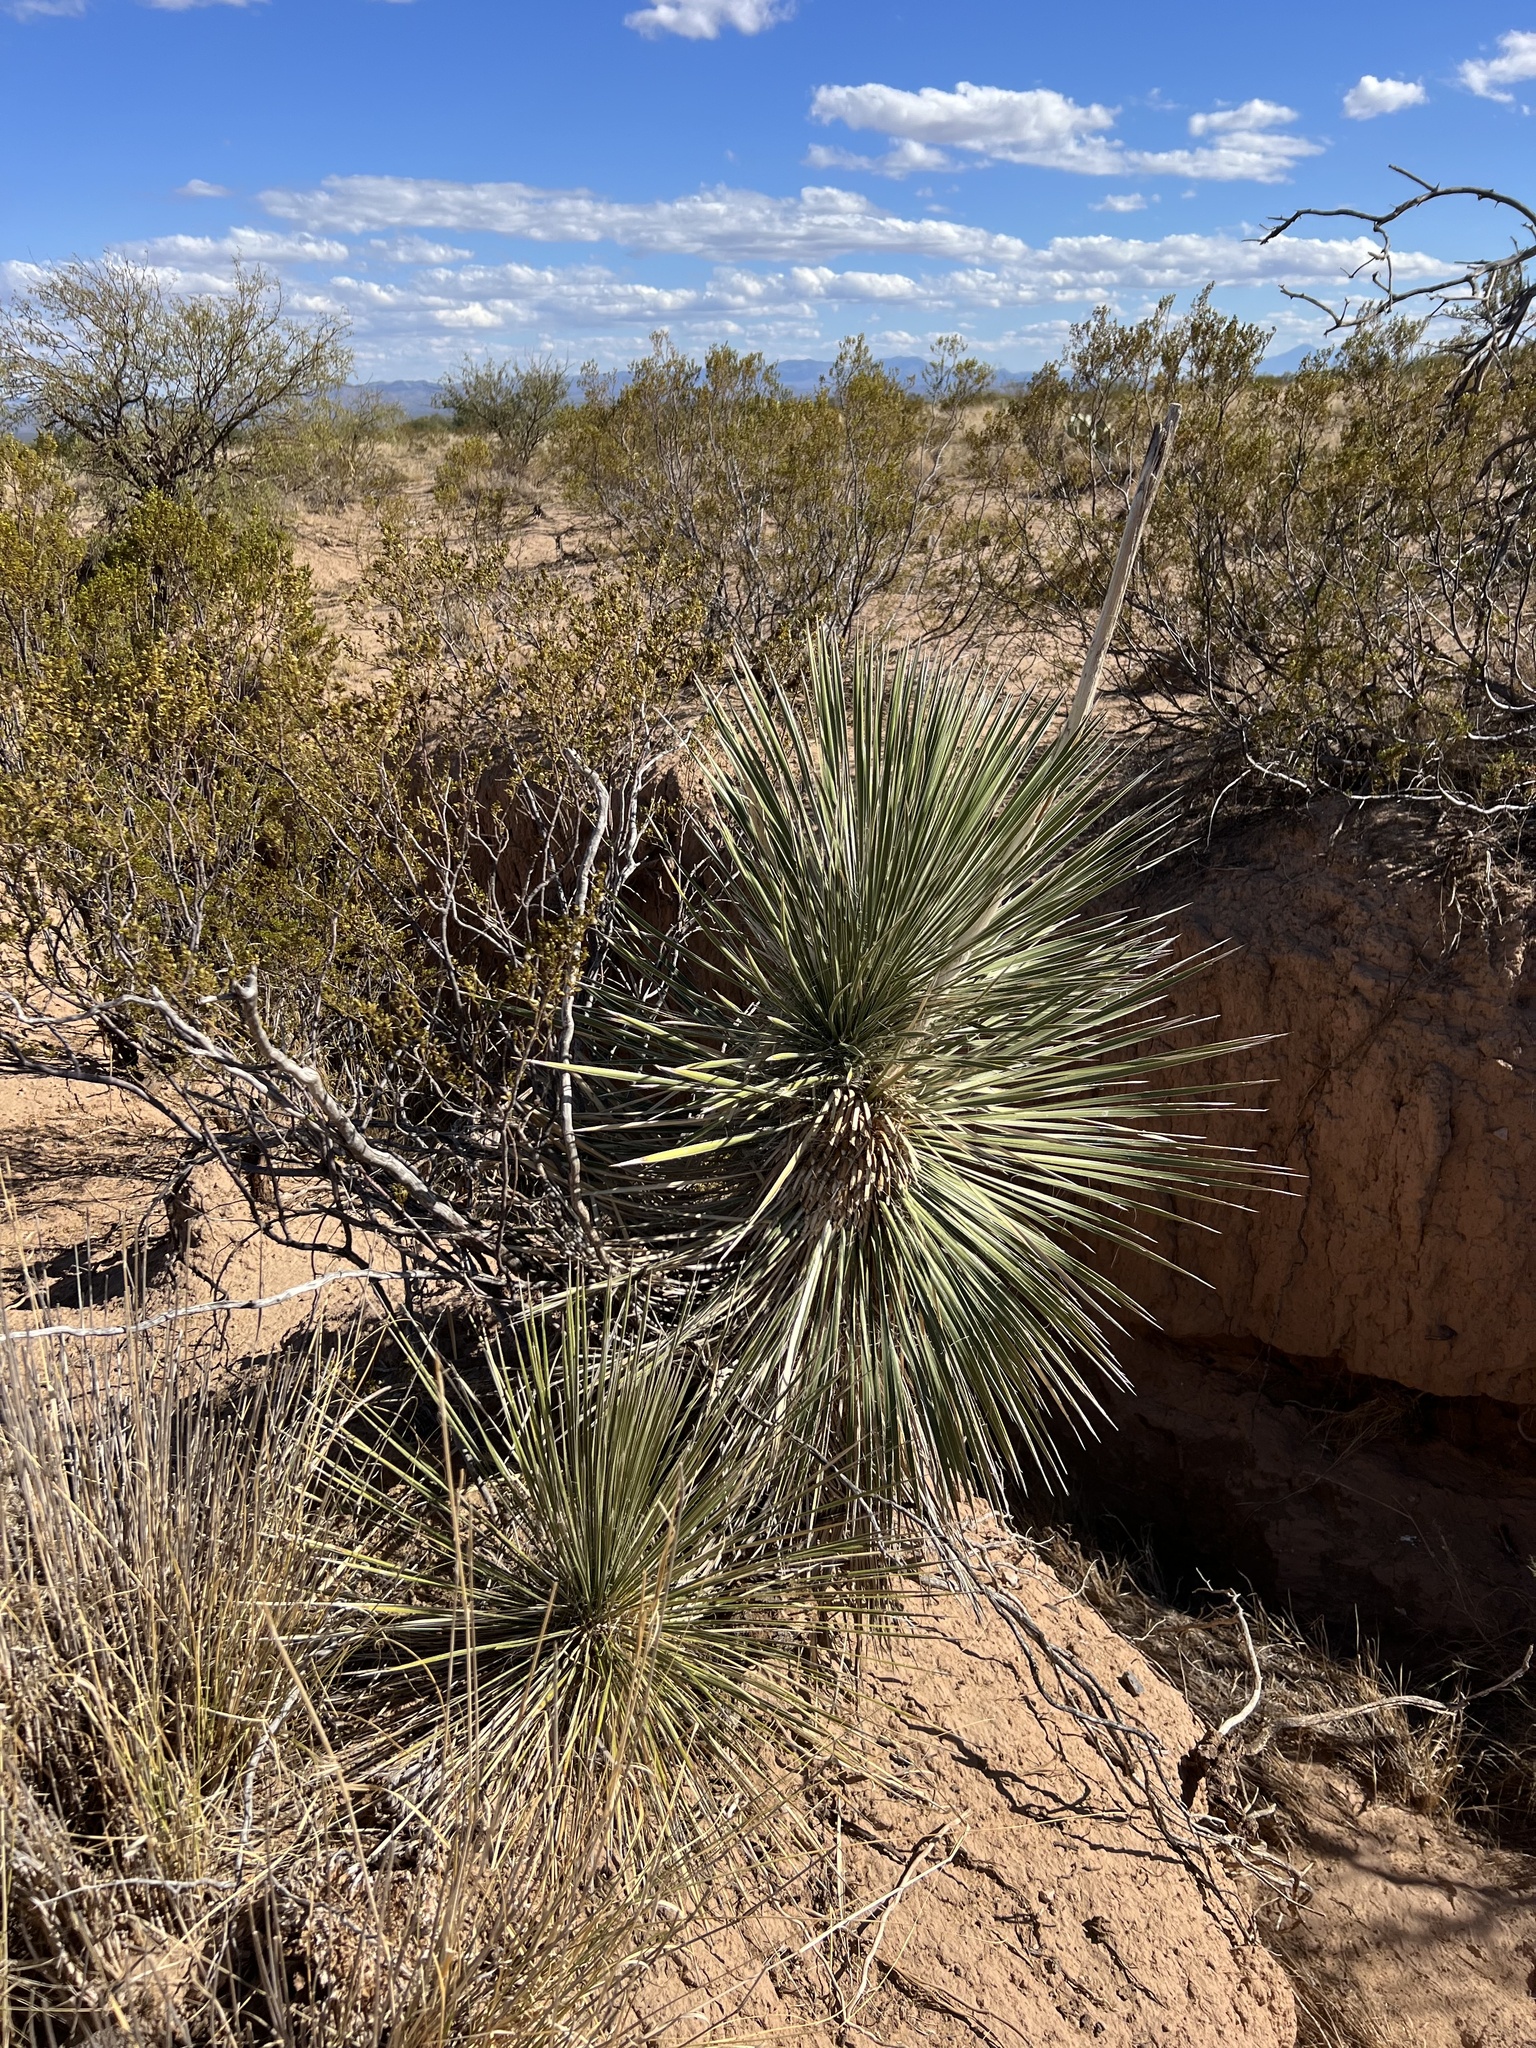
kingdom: Plantae
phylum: Tracheophyta
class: Liliopsida
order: Asparagales
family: Asparagaceae
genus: Yucca
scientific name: Yucca elata
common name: Palmella
